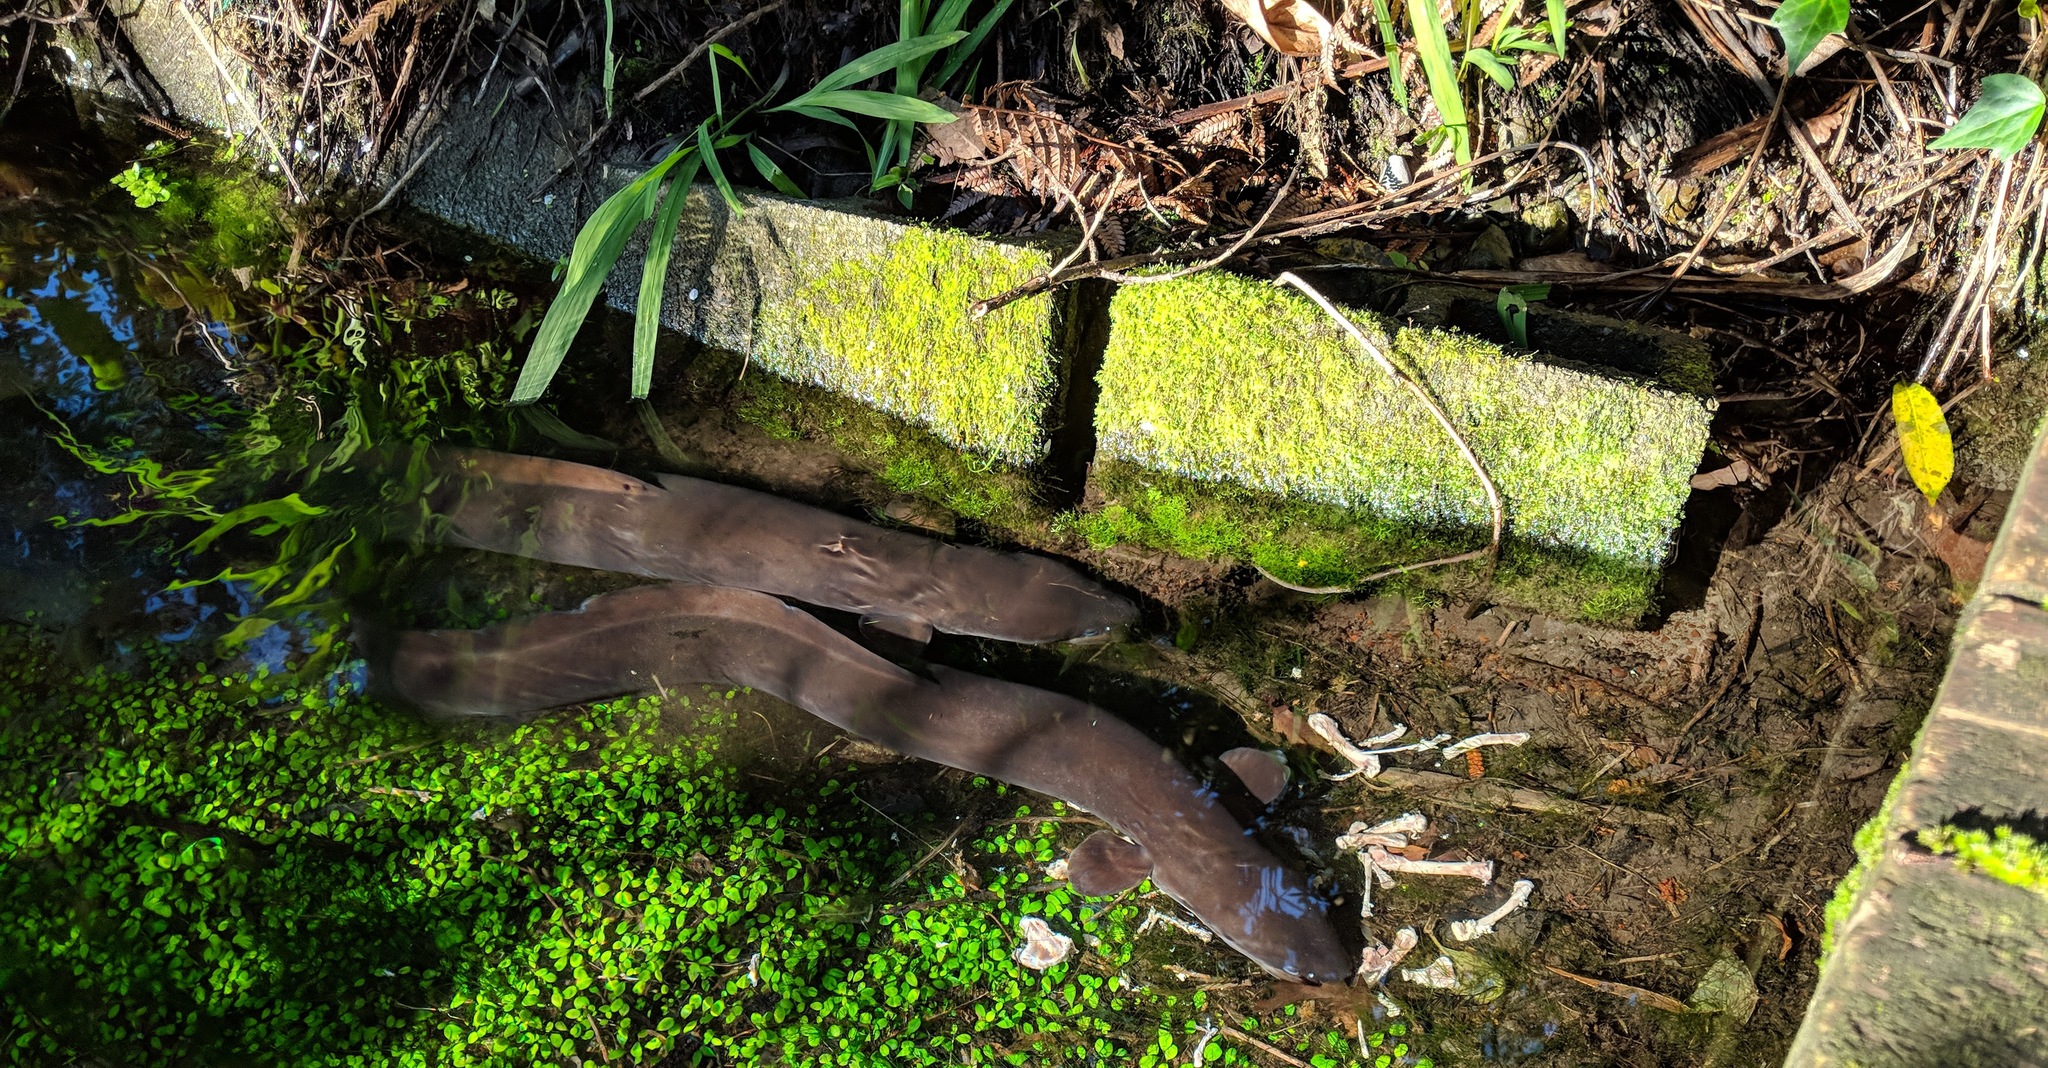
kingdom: Animalia
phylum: Chordata
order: Anguilliformes
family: Anguillidae
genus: Anguilla
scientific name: Anguilla dieffenbachii
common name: New zealand longfin eel
